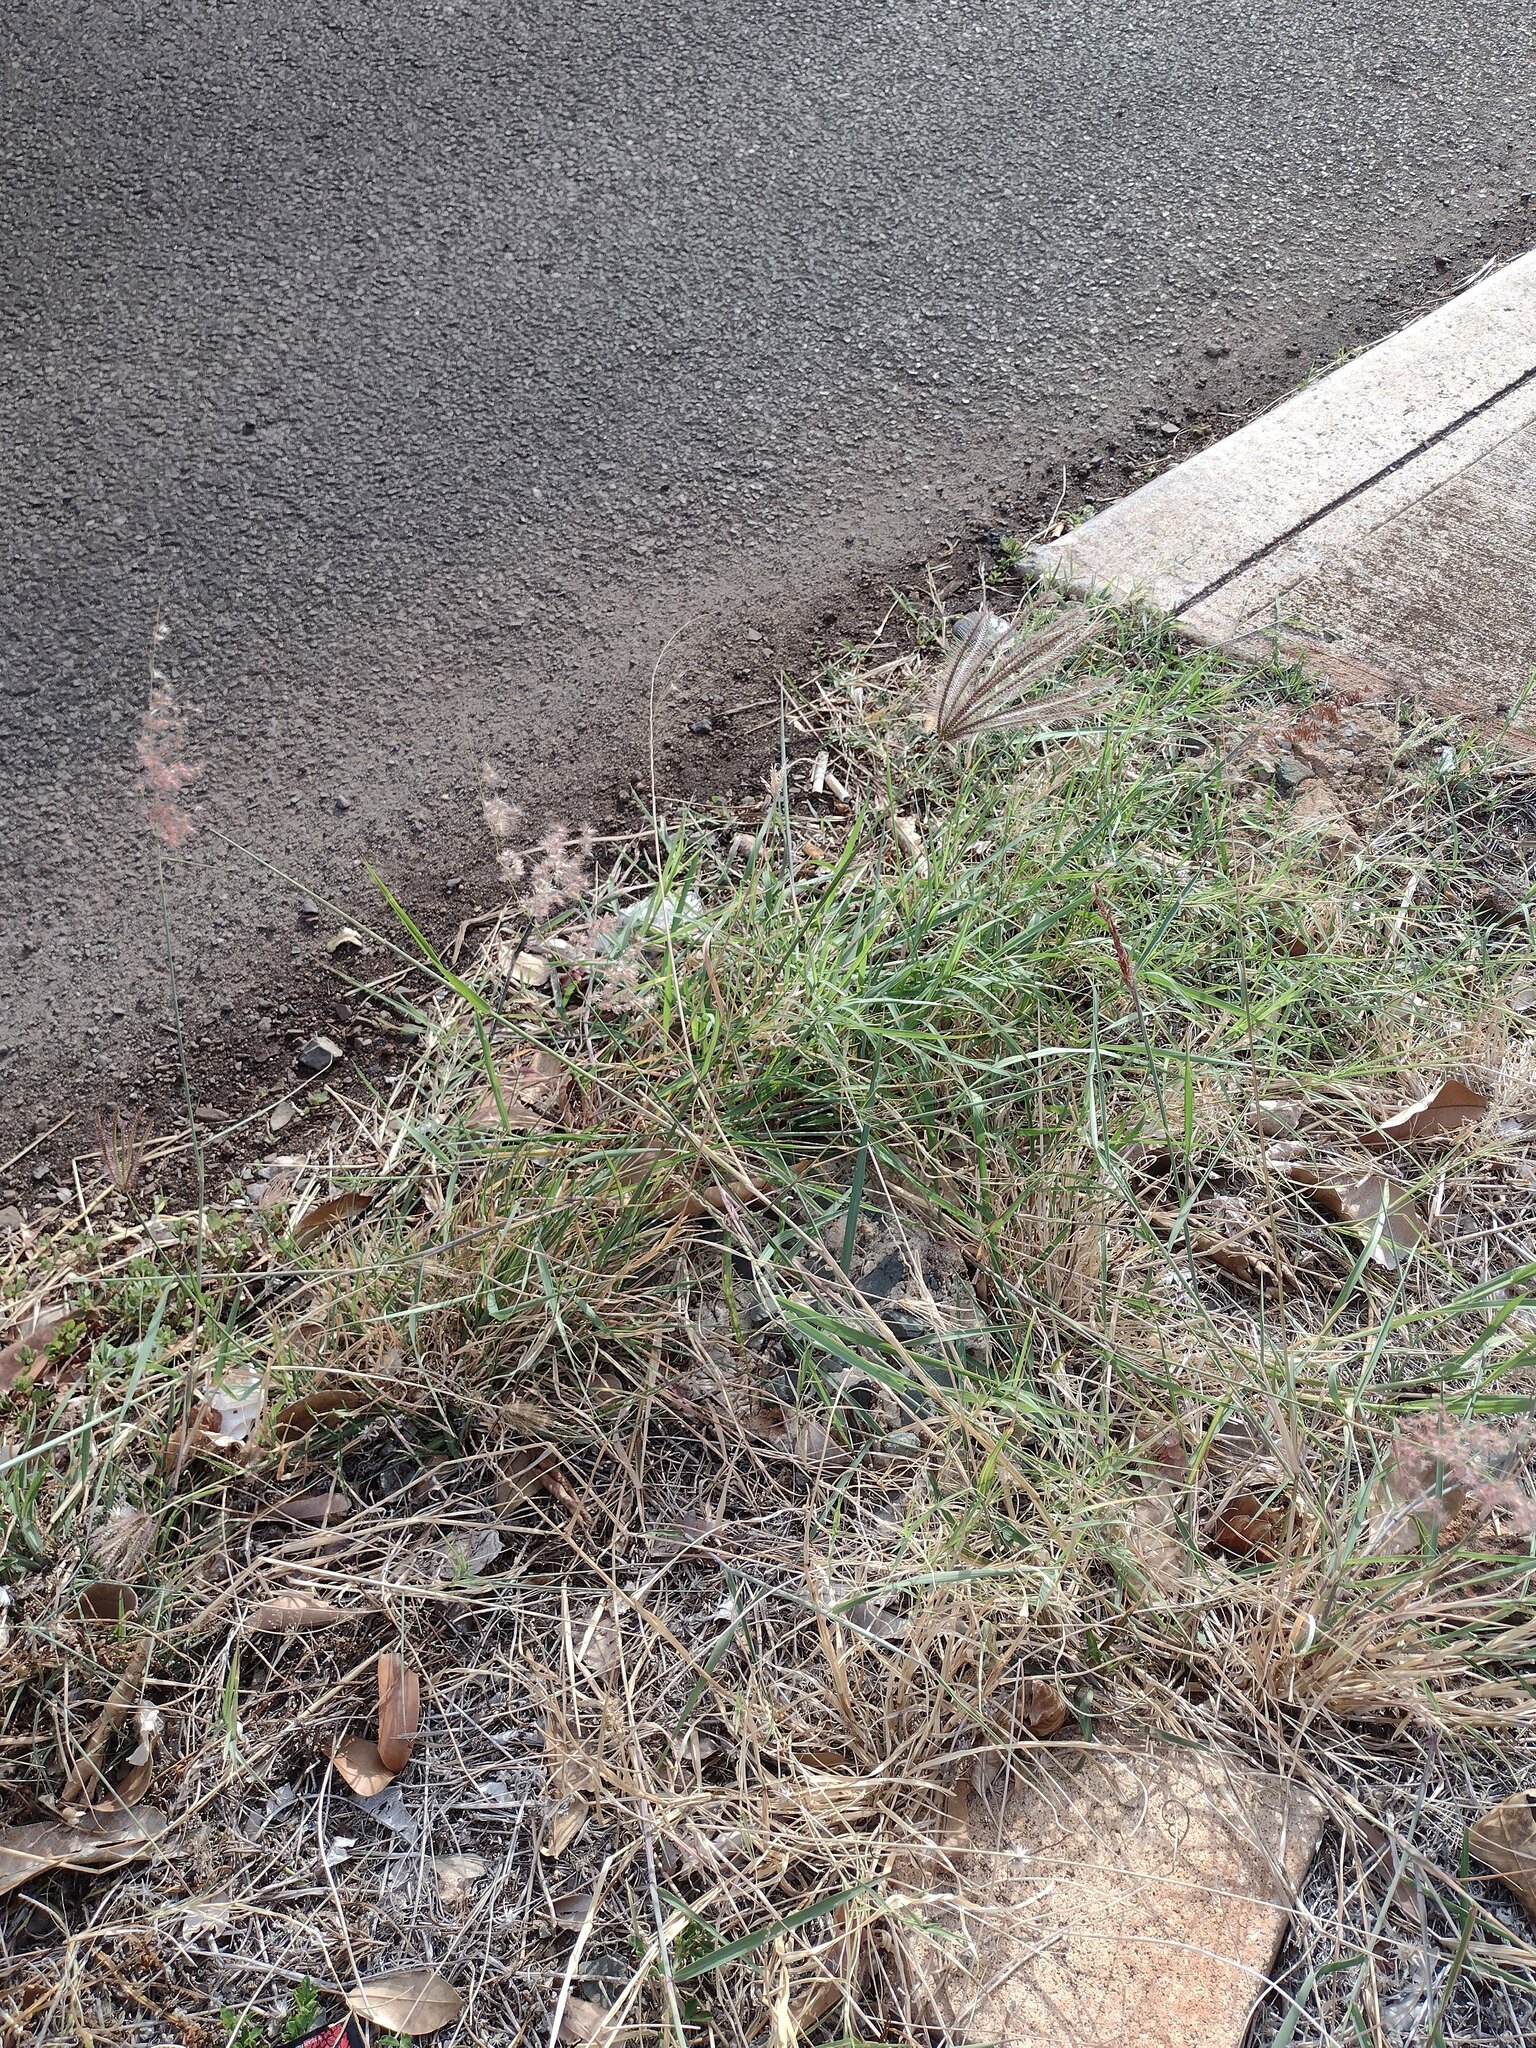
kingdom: Plantae
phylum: Tracheophyta
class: Liliopsida
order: Poales
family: Poaceae
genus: Melinis
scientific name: Melinis repens
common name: Rose natal grass
